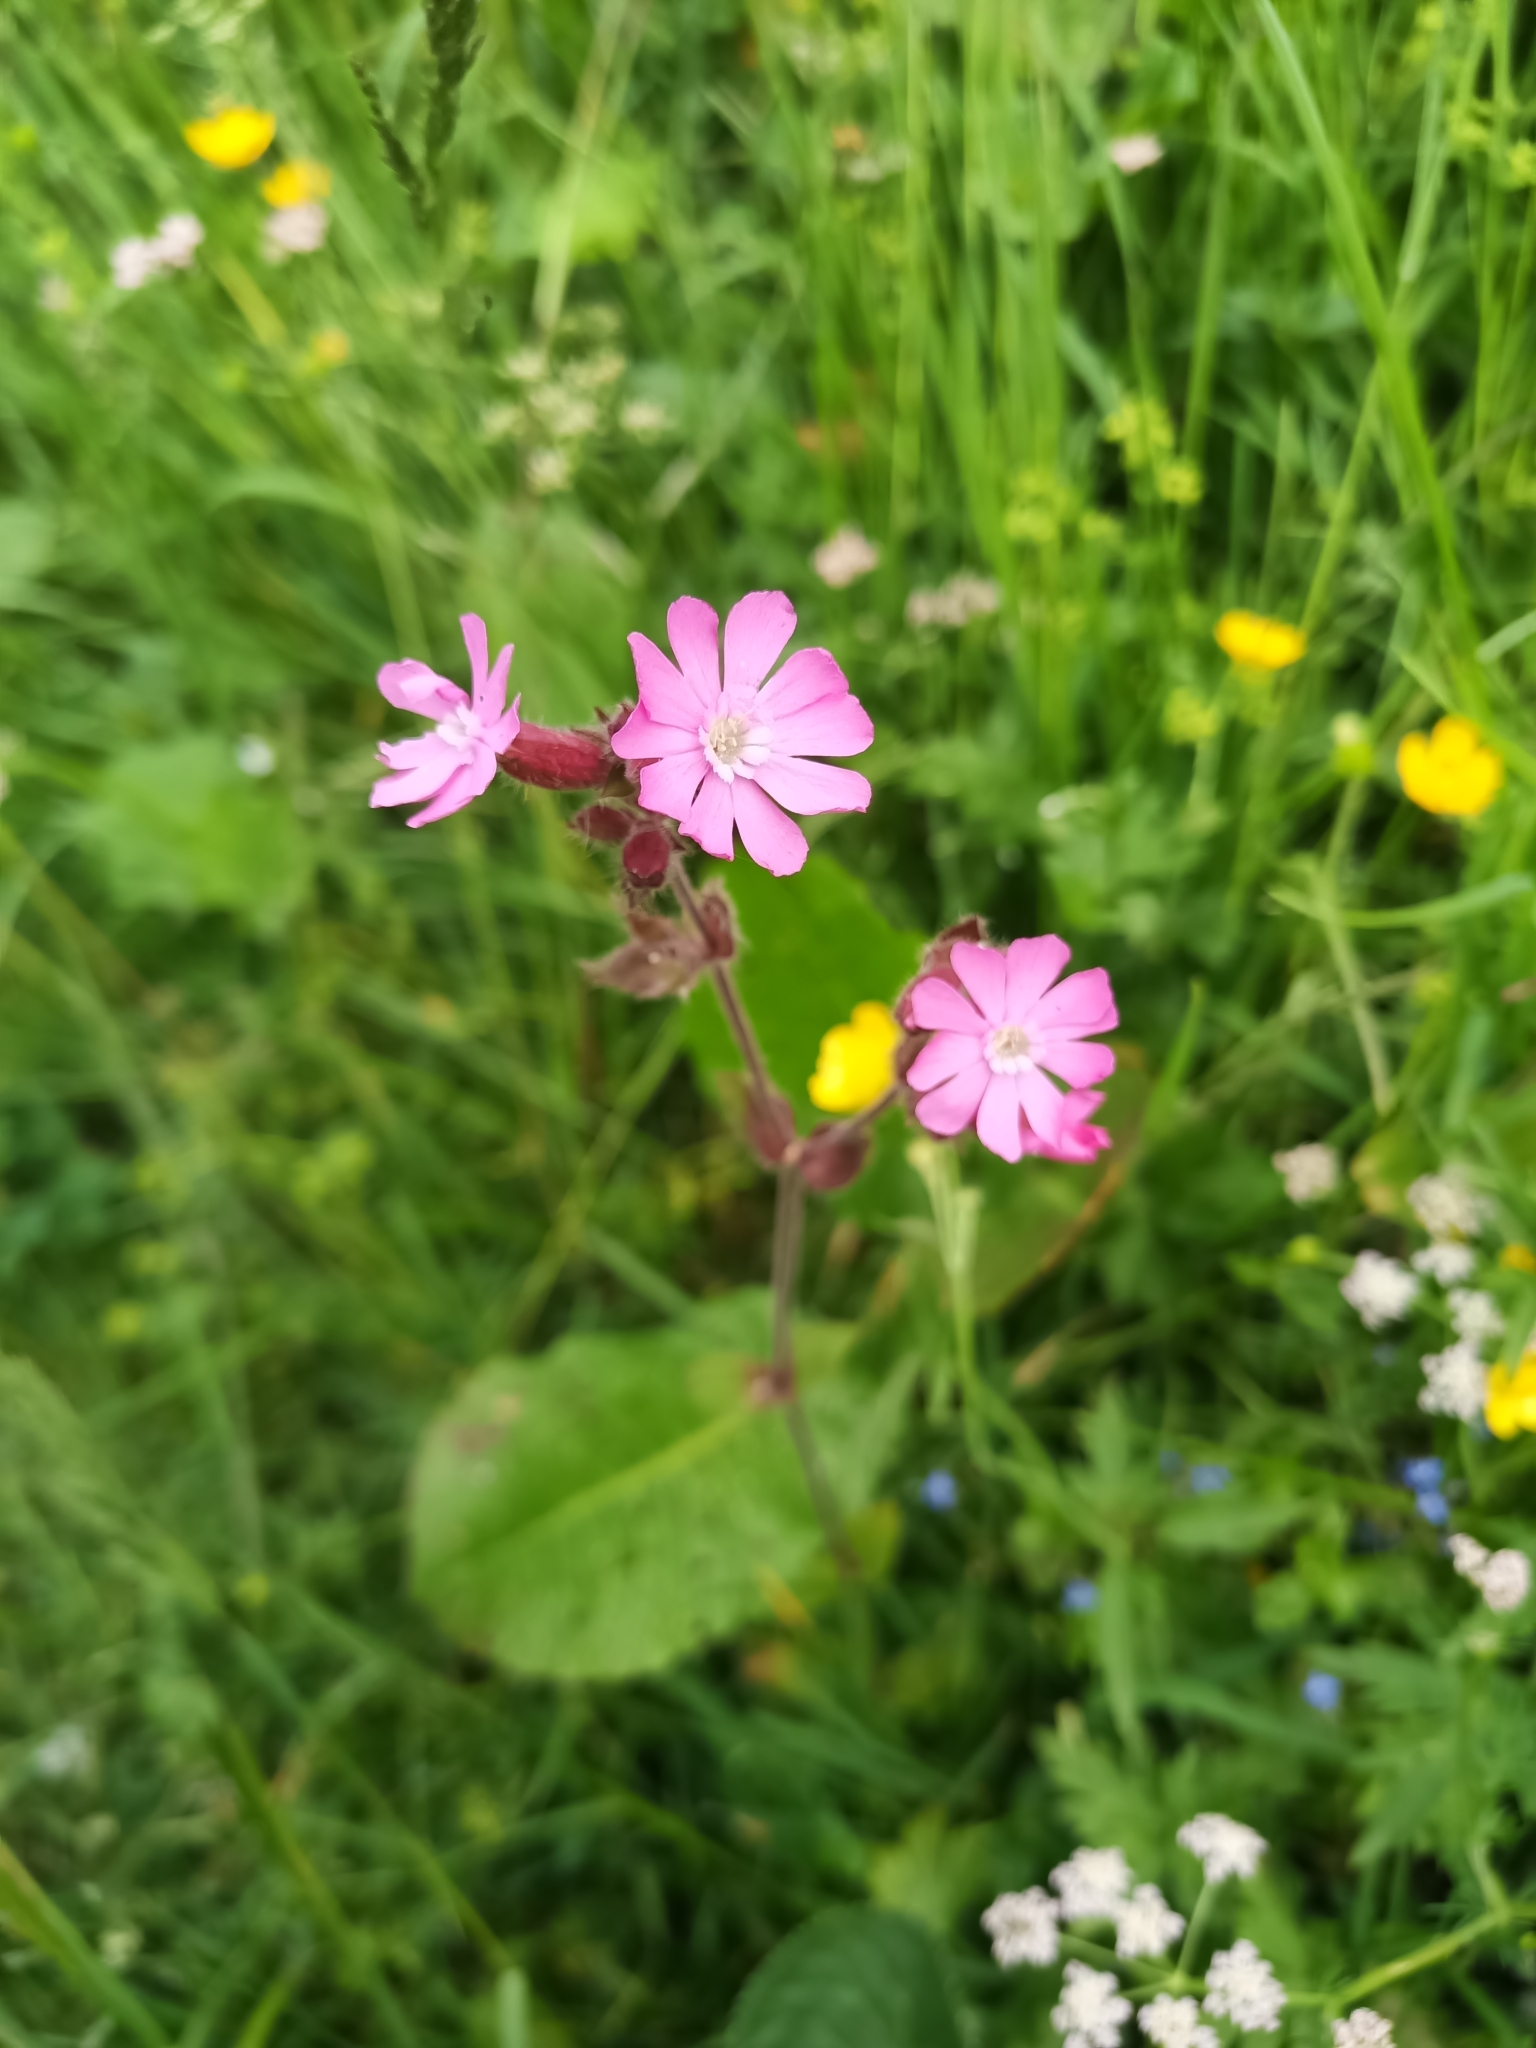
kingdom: Plantae
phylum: Tracheophyta
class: Magnoliopsida
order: Caryophyllales
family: Caryophyllaceae
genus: Silene
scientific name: Silene dioica
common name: Red campion
